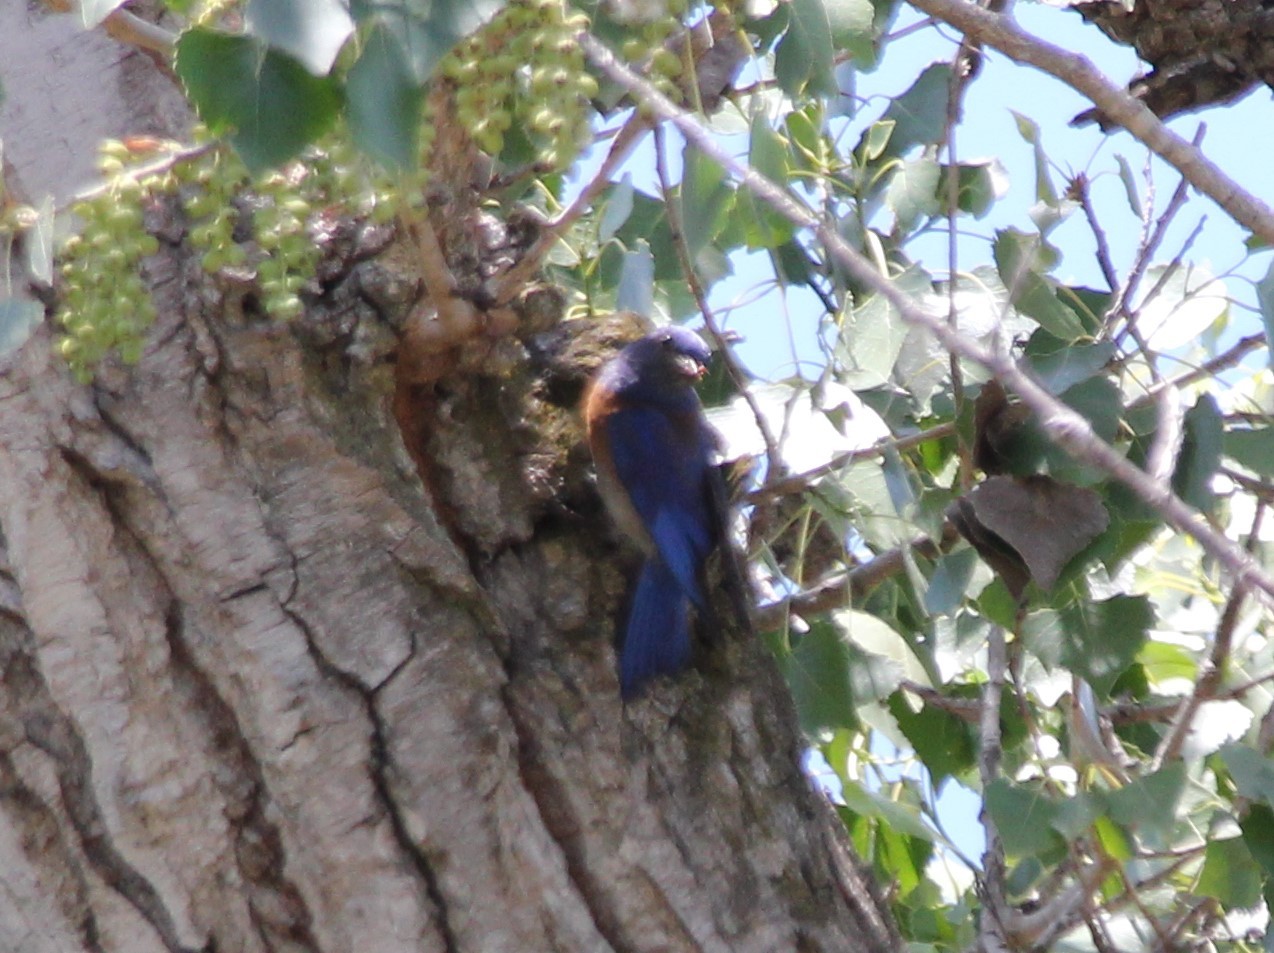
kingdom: Animalia
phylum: Chordata
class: Aves
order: Passeriformes
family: Turdidae
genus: Sialia
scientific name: Sialia mexicana
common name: Western bluebird
